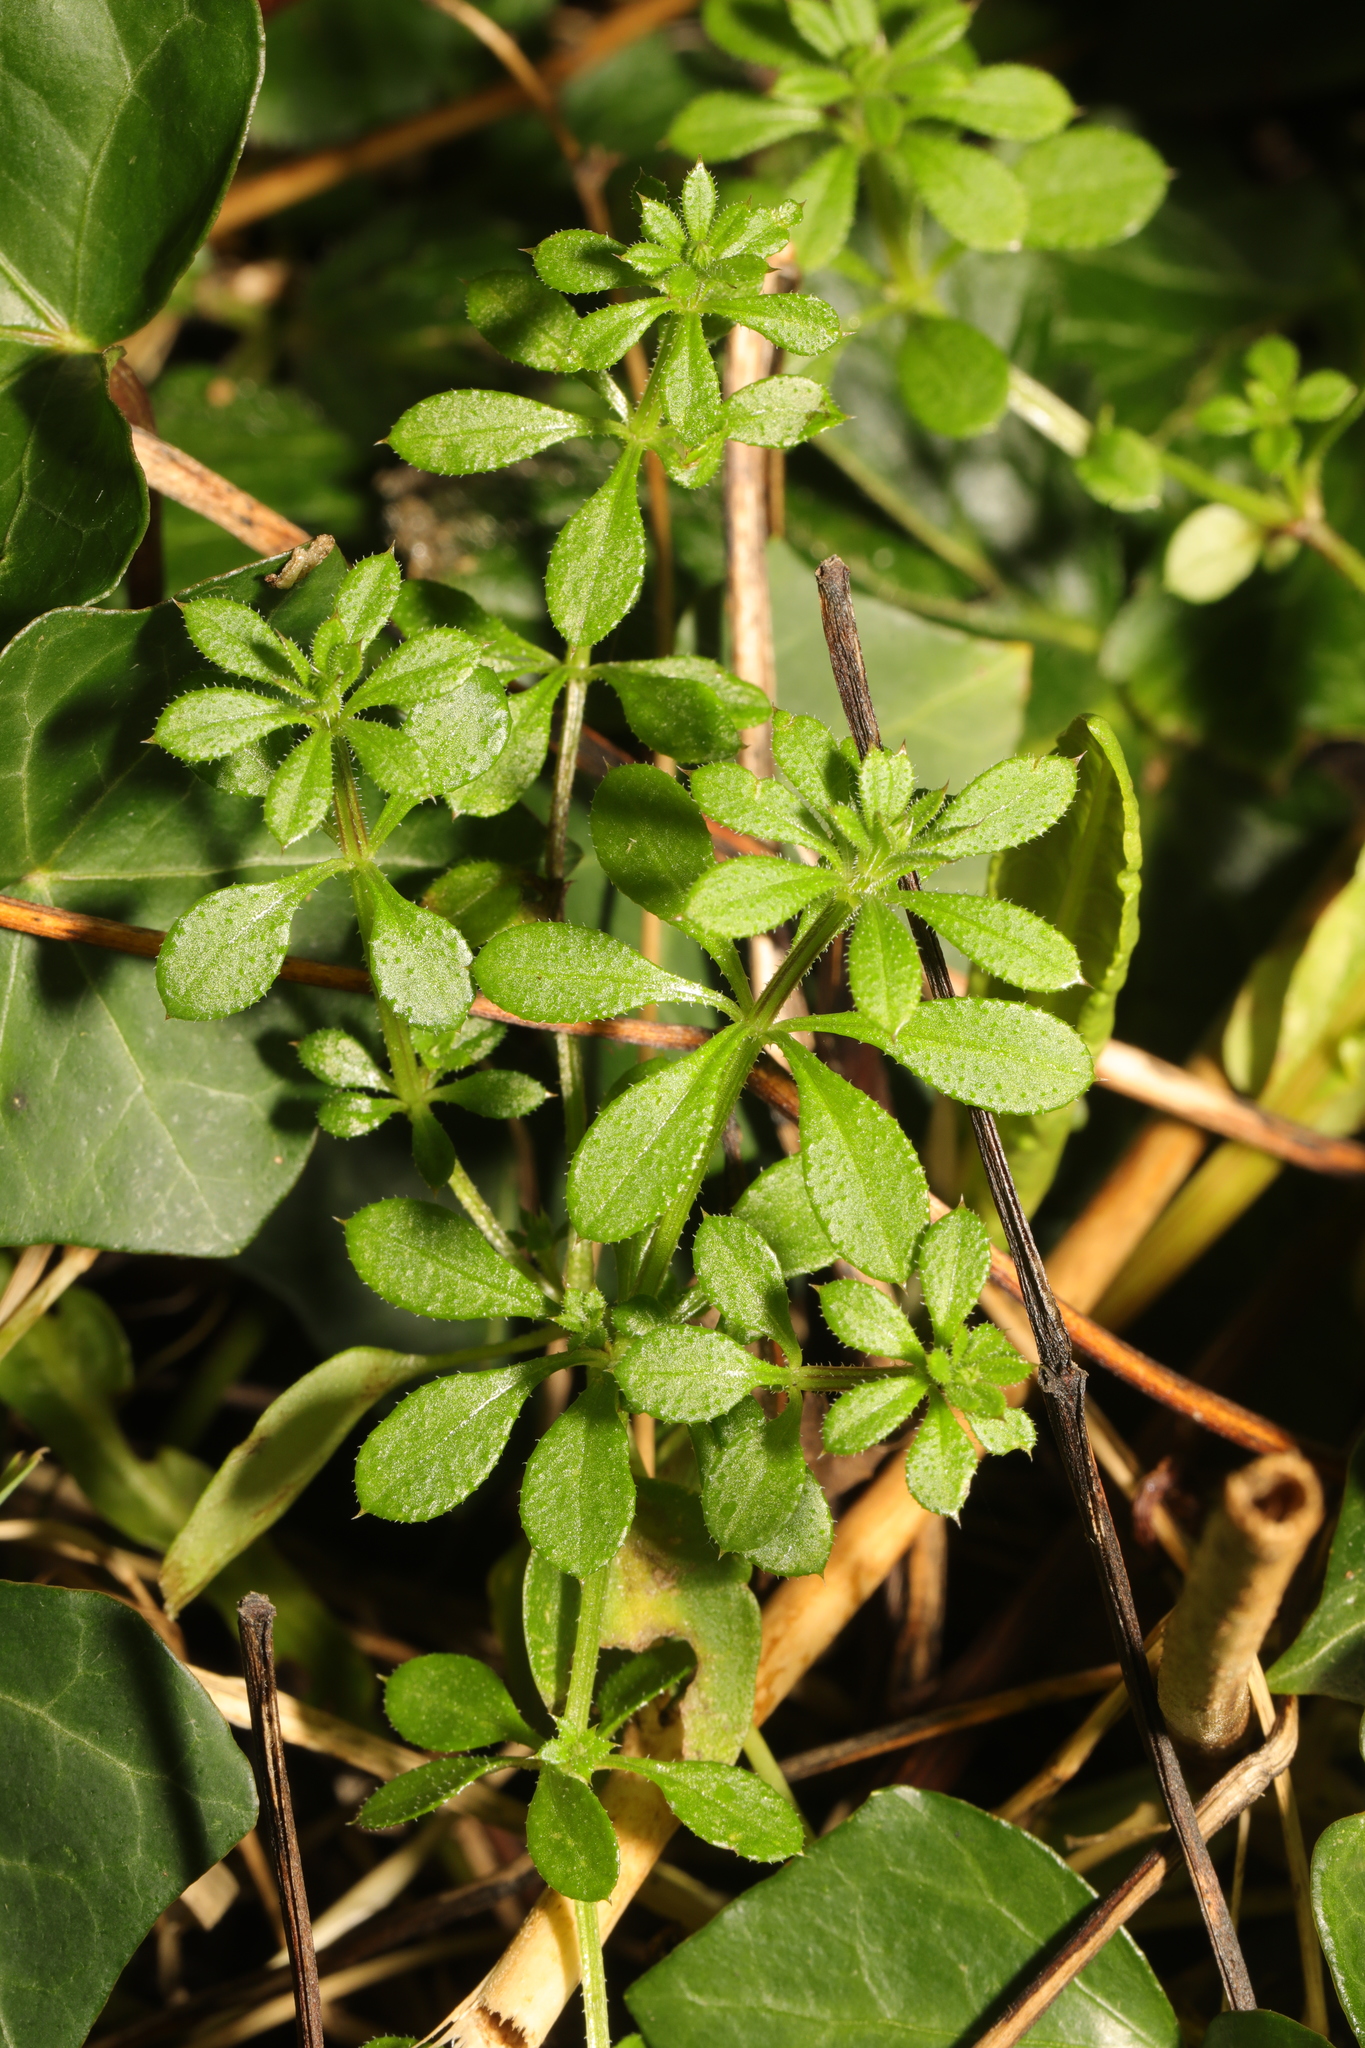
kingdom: Plantae
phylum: Tracheophyta
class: Magnoliopsida
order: Gentianales
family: Rubiaceae
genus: Galium
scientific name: Galium aparine
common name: Cleavers
